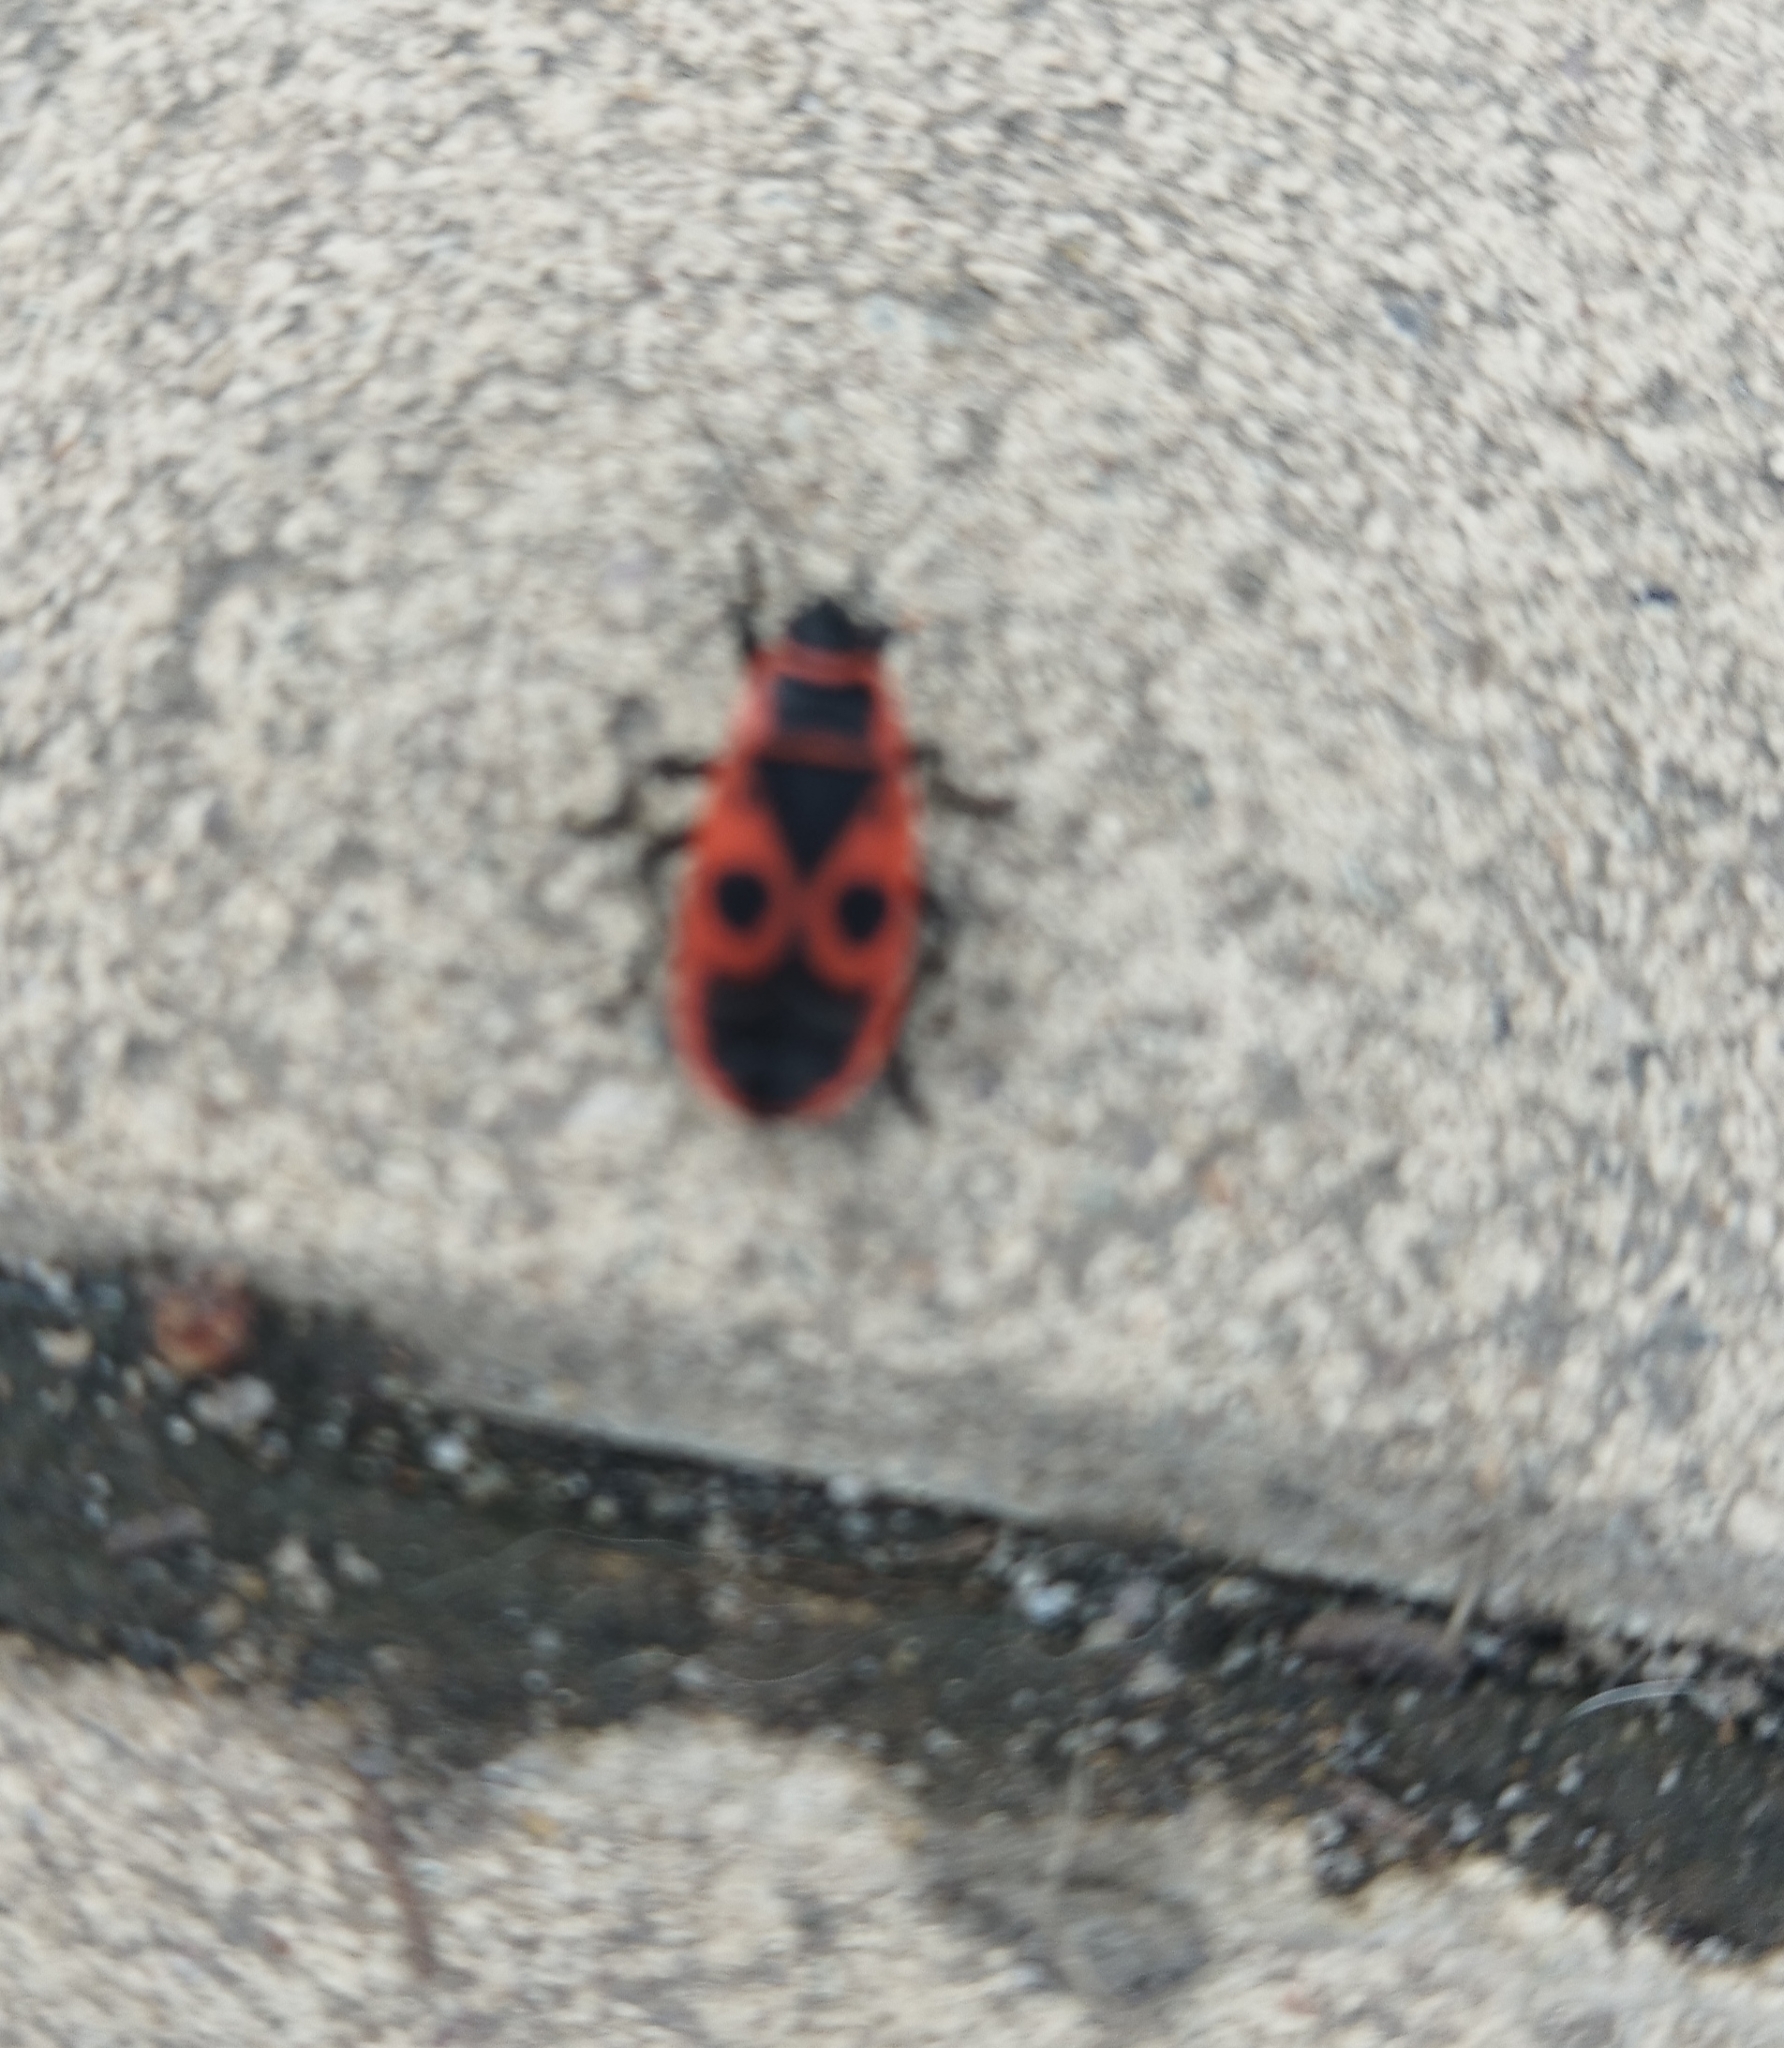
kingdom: Animalia
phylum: Arthropoda
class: Insecta
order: Hemiptera
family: Pyrrhocoridae
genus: Pyrrhocoris
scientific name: Pyrrhocoris apterus
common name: Firebug
